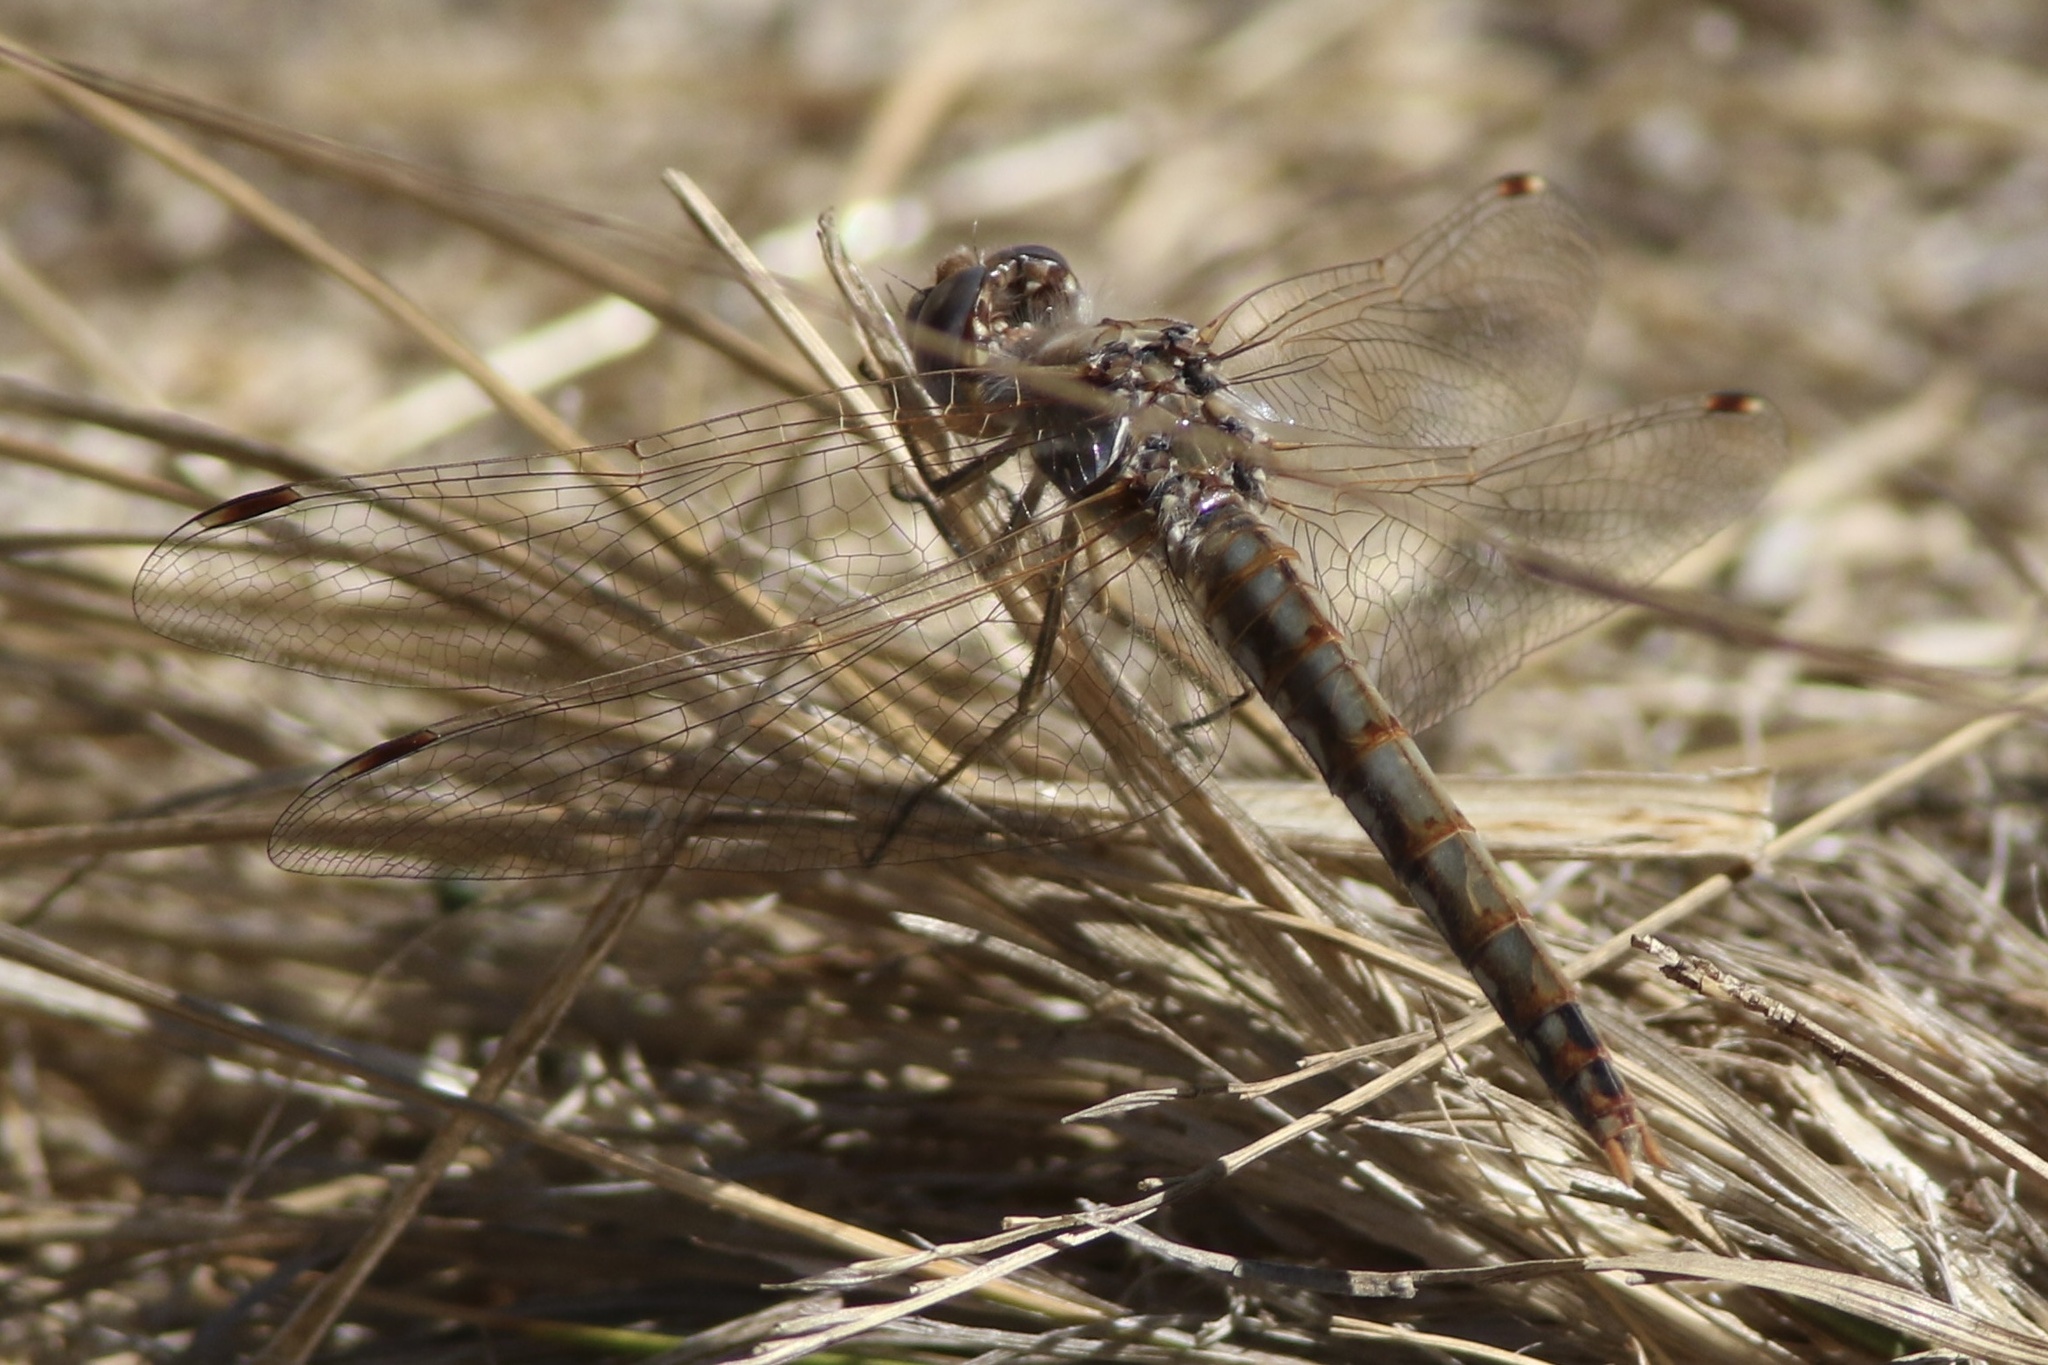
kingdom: Animalia
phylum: Arthropoda
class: Insecta
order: Odonata
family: Libellulidae
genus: Sympetrum
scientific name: Sympetrum corruptum
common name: Variegated meadowhawk
